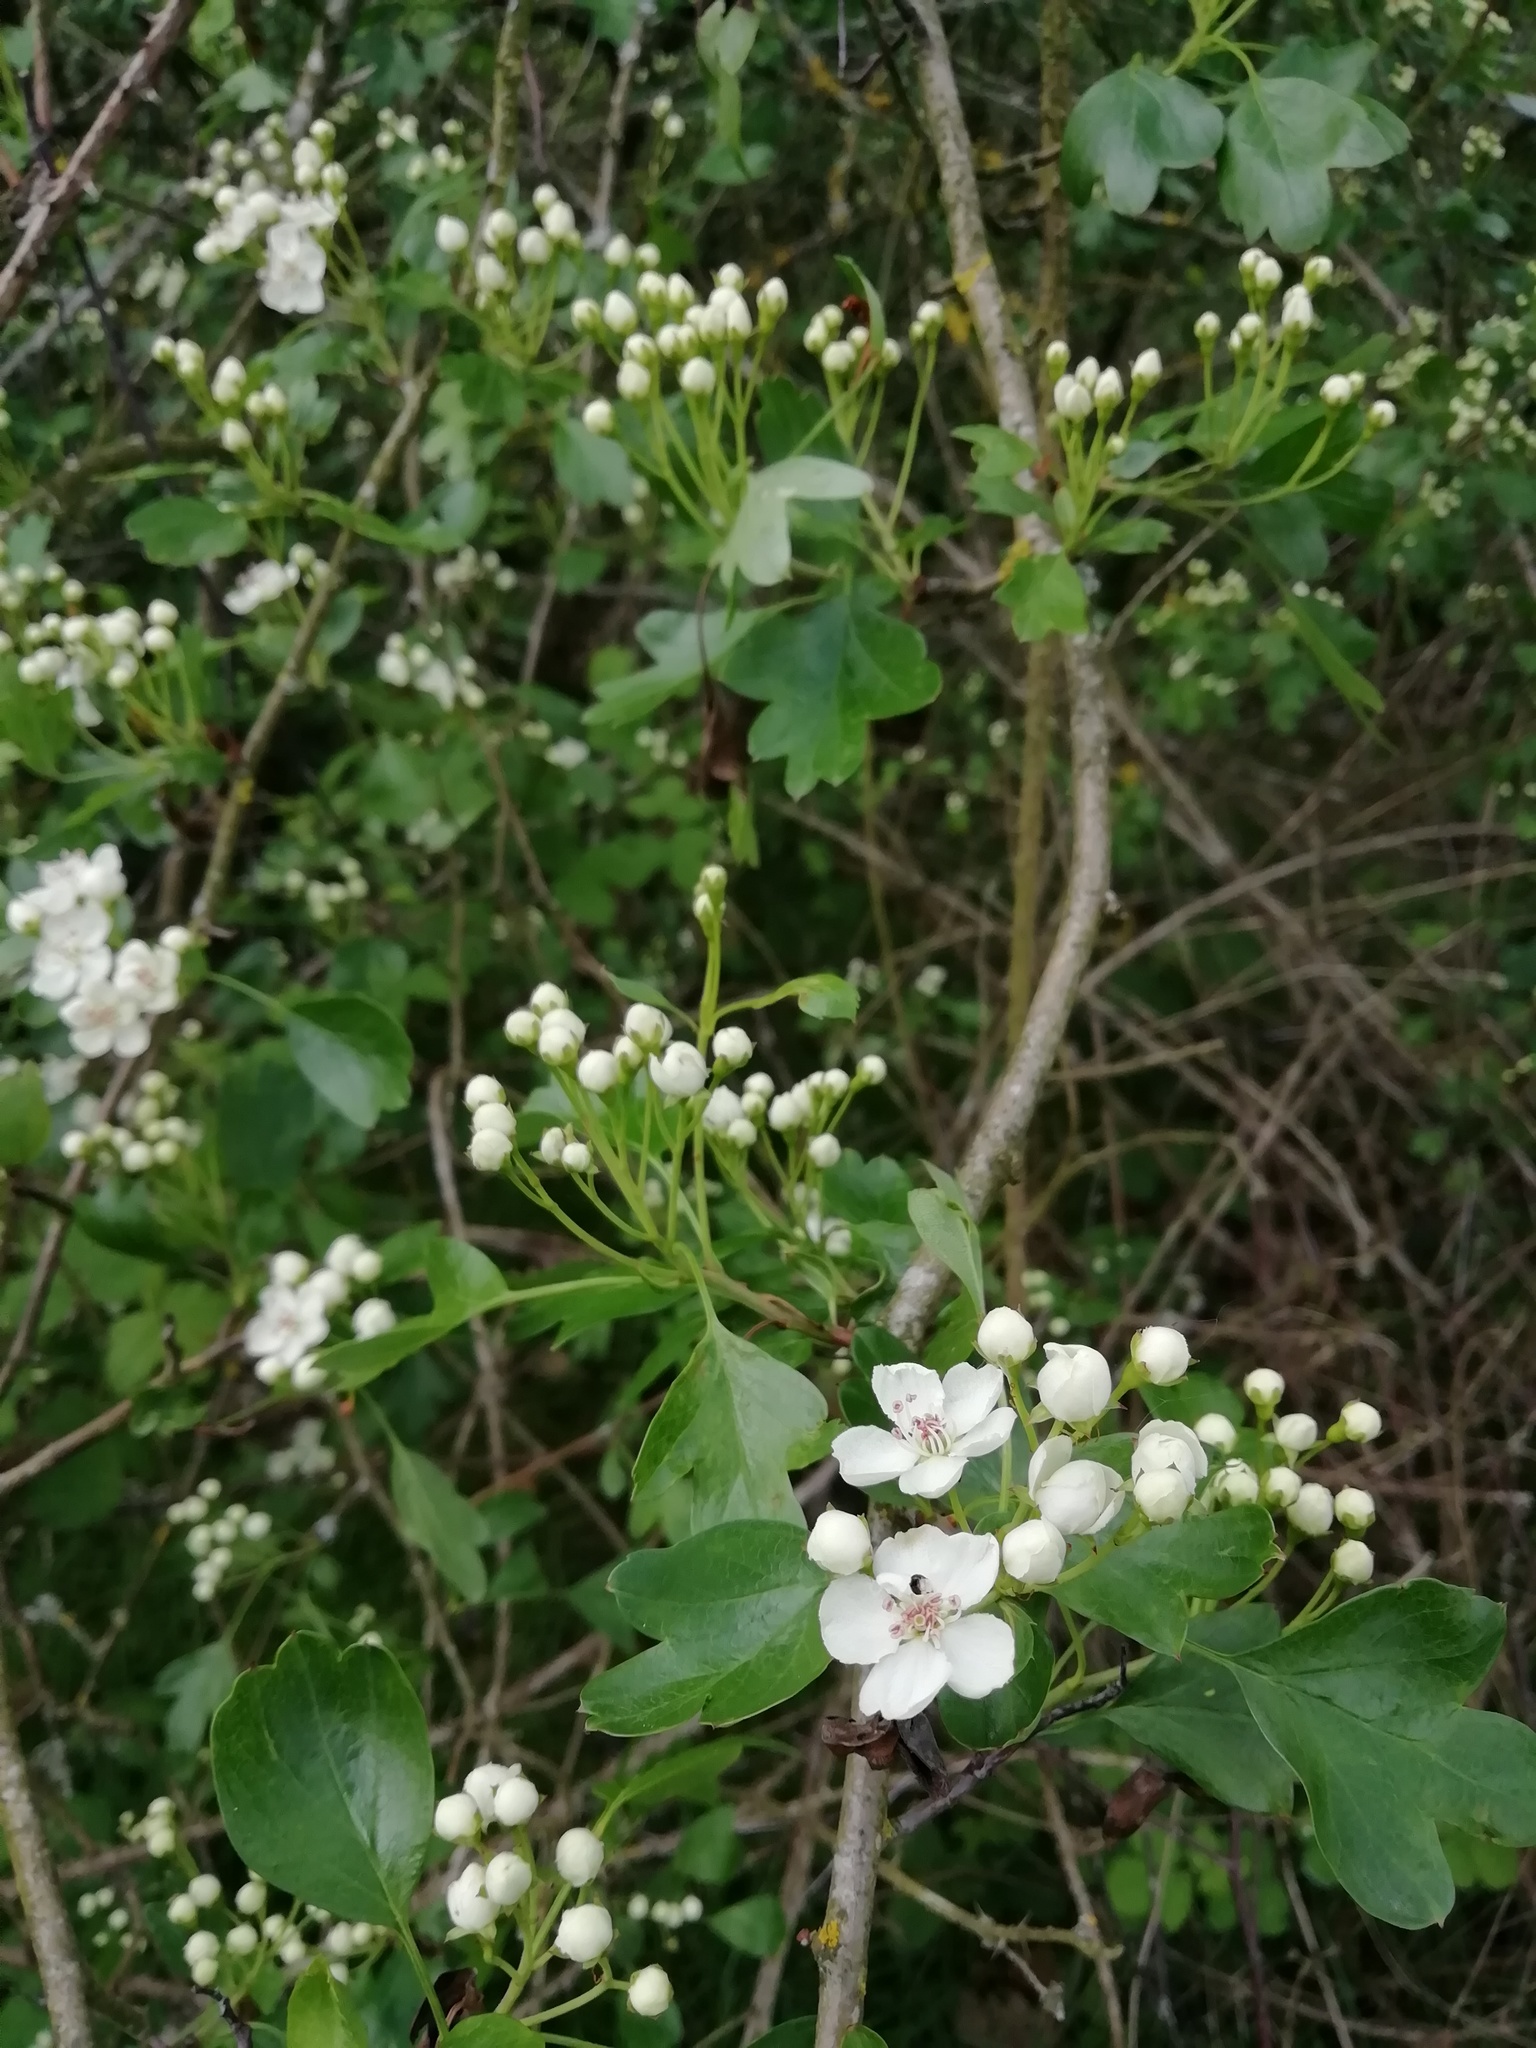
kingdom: Plantae
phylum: Tracheophyta
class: Magnoliopsida
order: Rosales
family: Rosaceae
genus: Crataegus
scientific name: Crataegus monogyna
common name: Hawthorn
